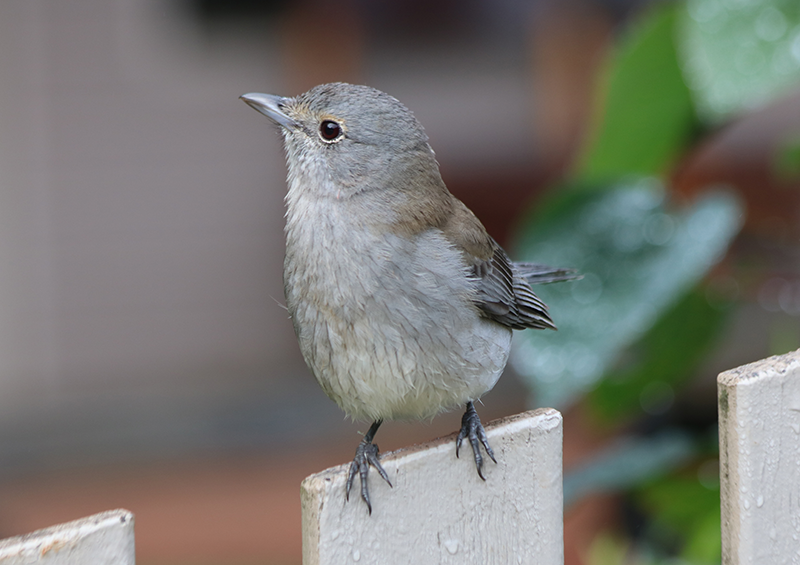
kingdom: Animalia
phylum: Chordata
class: Aves
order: Passeriformes
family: Pachycephalidae
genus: Colluricincla
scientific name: Colluricincla harmonica
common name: Grey shrikethrush
